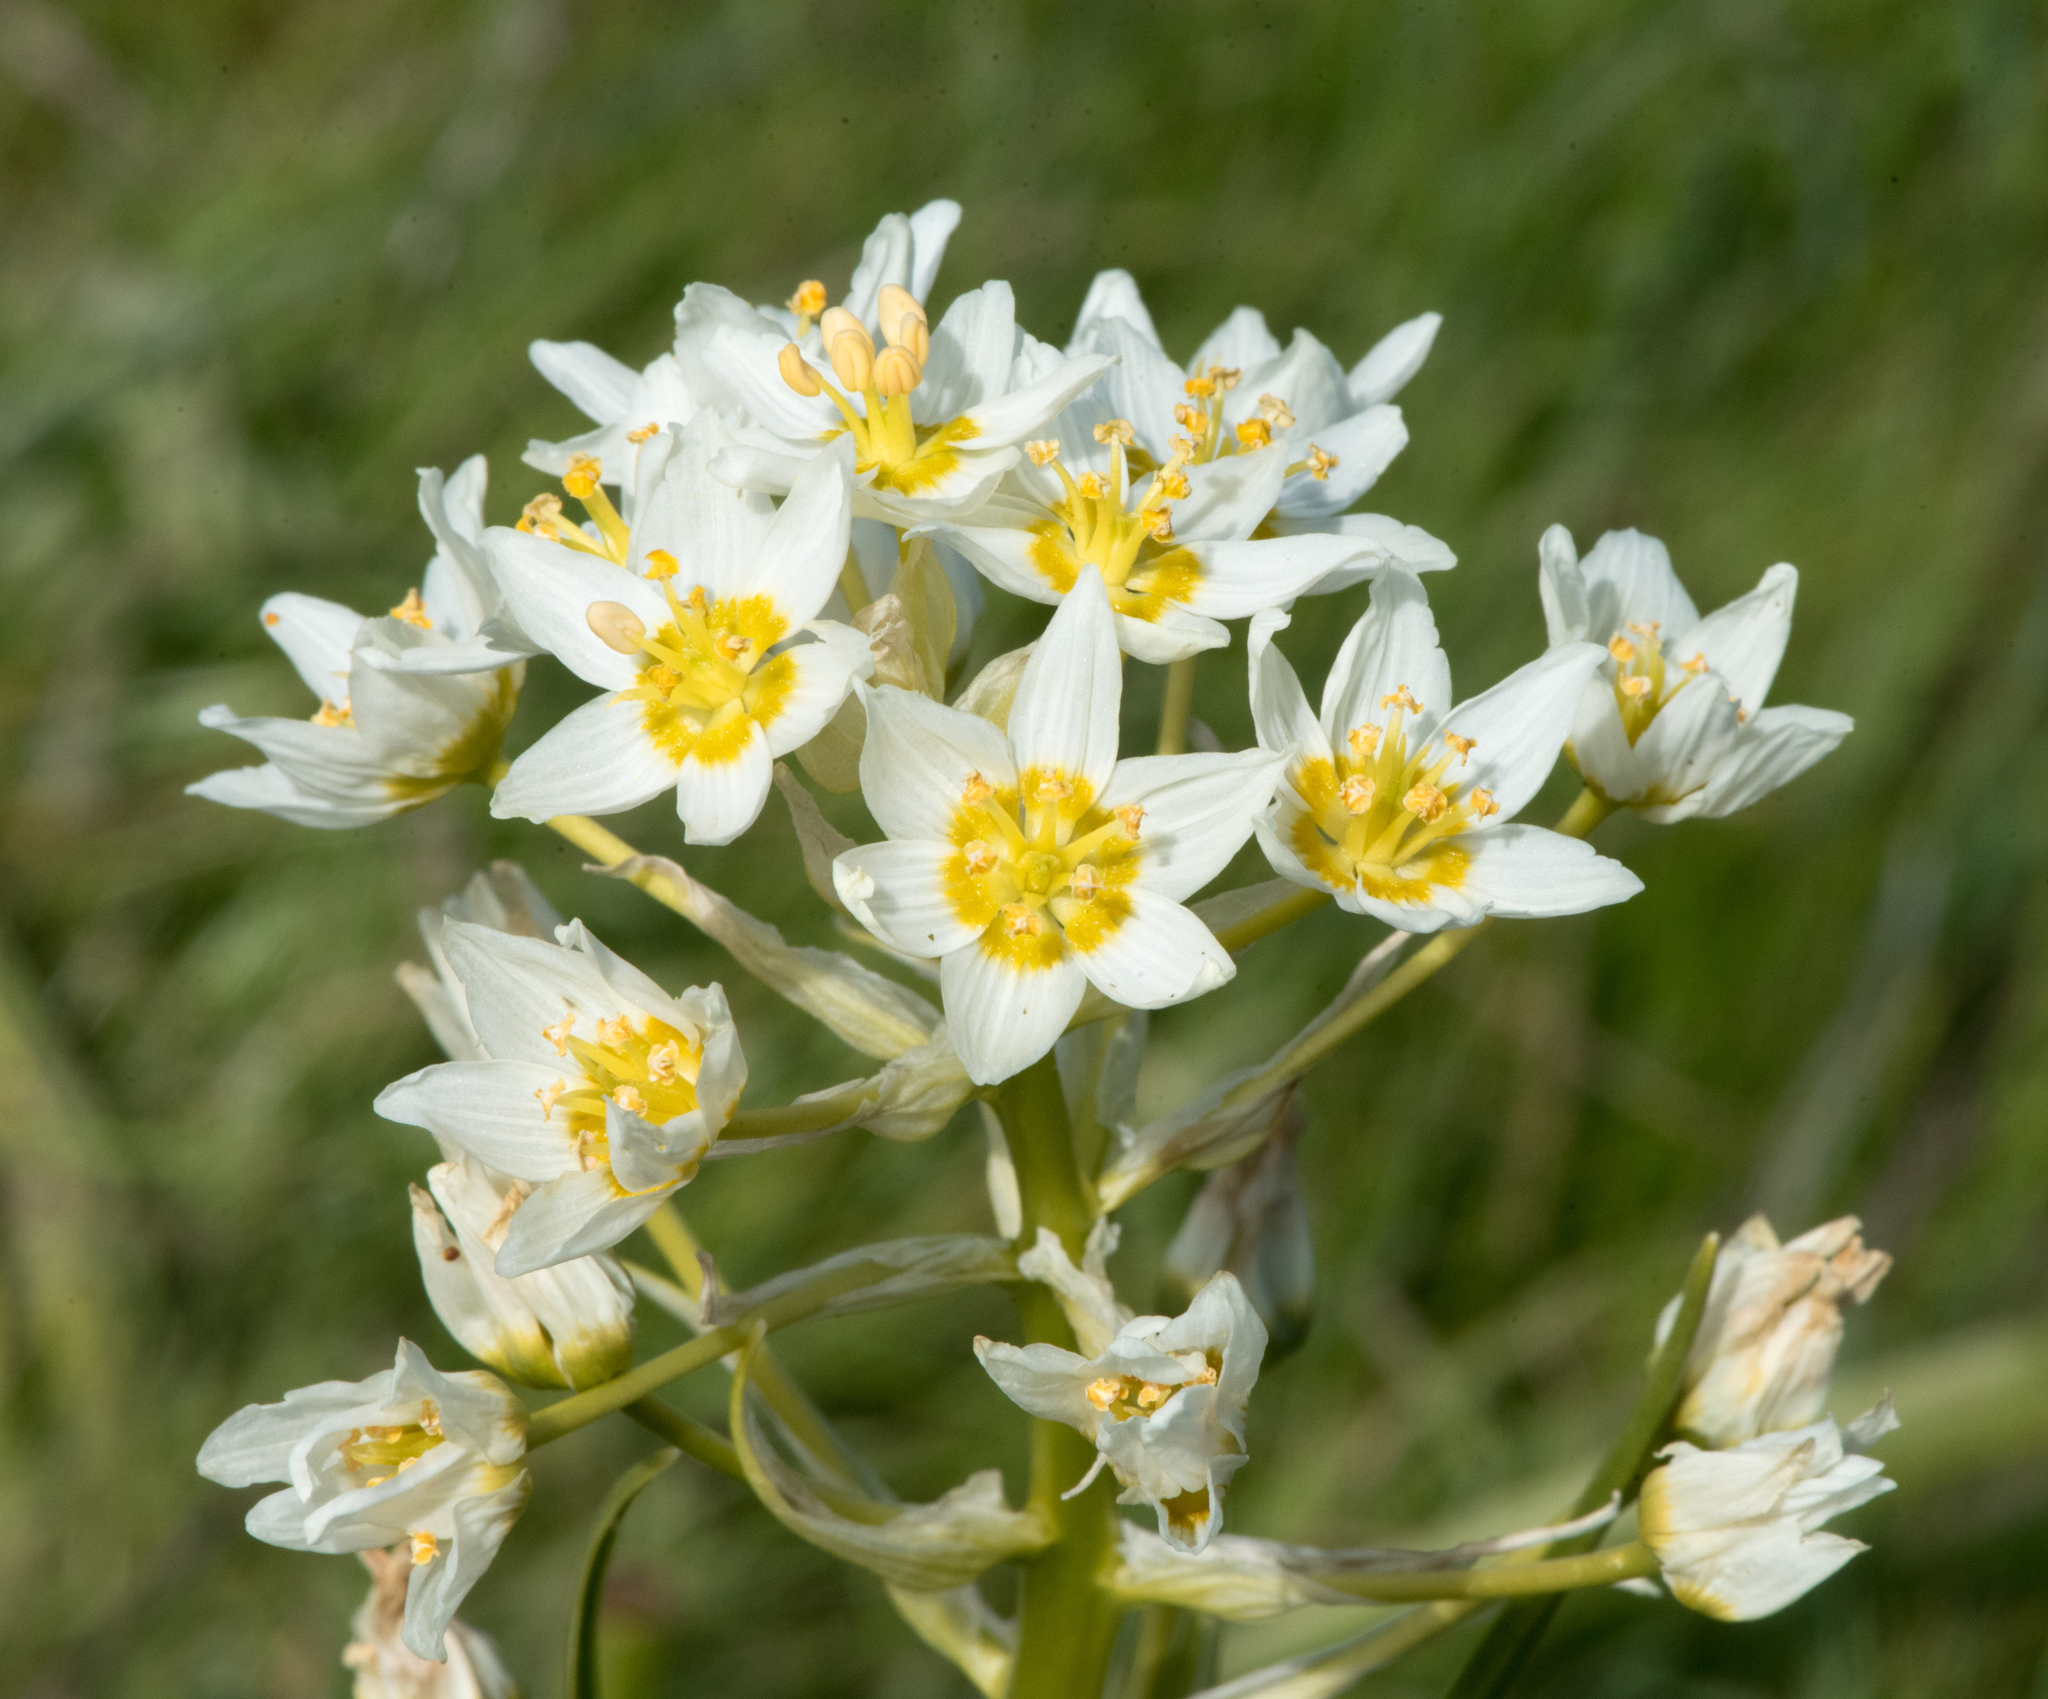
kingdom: Plantae
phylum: Tracheophyta
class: Liliopsida
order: Liliales
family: Melanthiaceae
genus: Toxicoscordion
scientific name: Toxicoscordion fremontii
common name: Fremont's death camas
